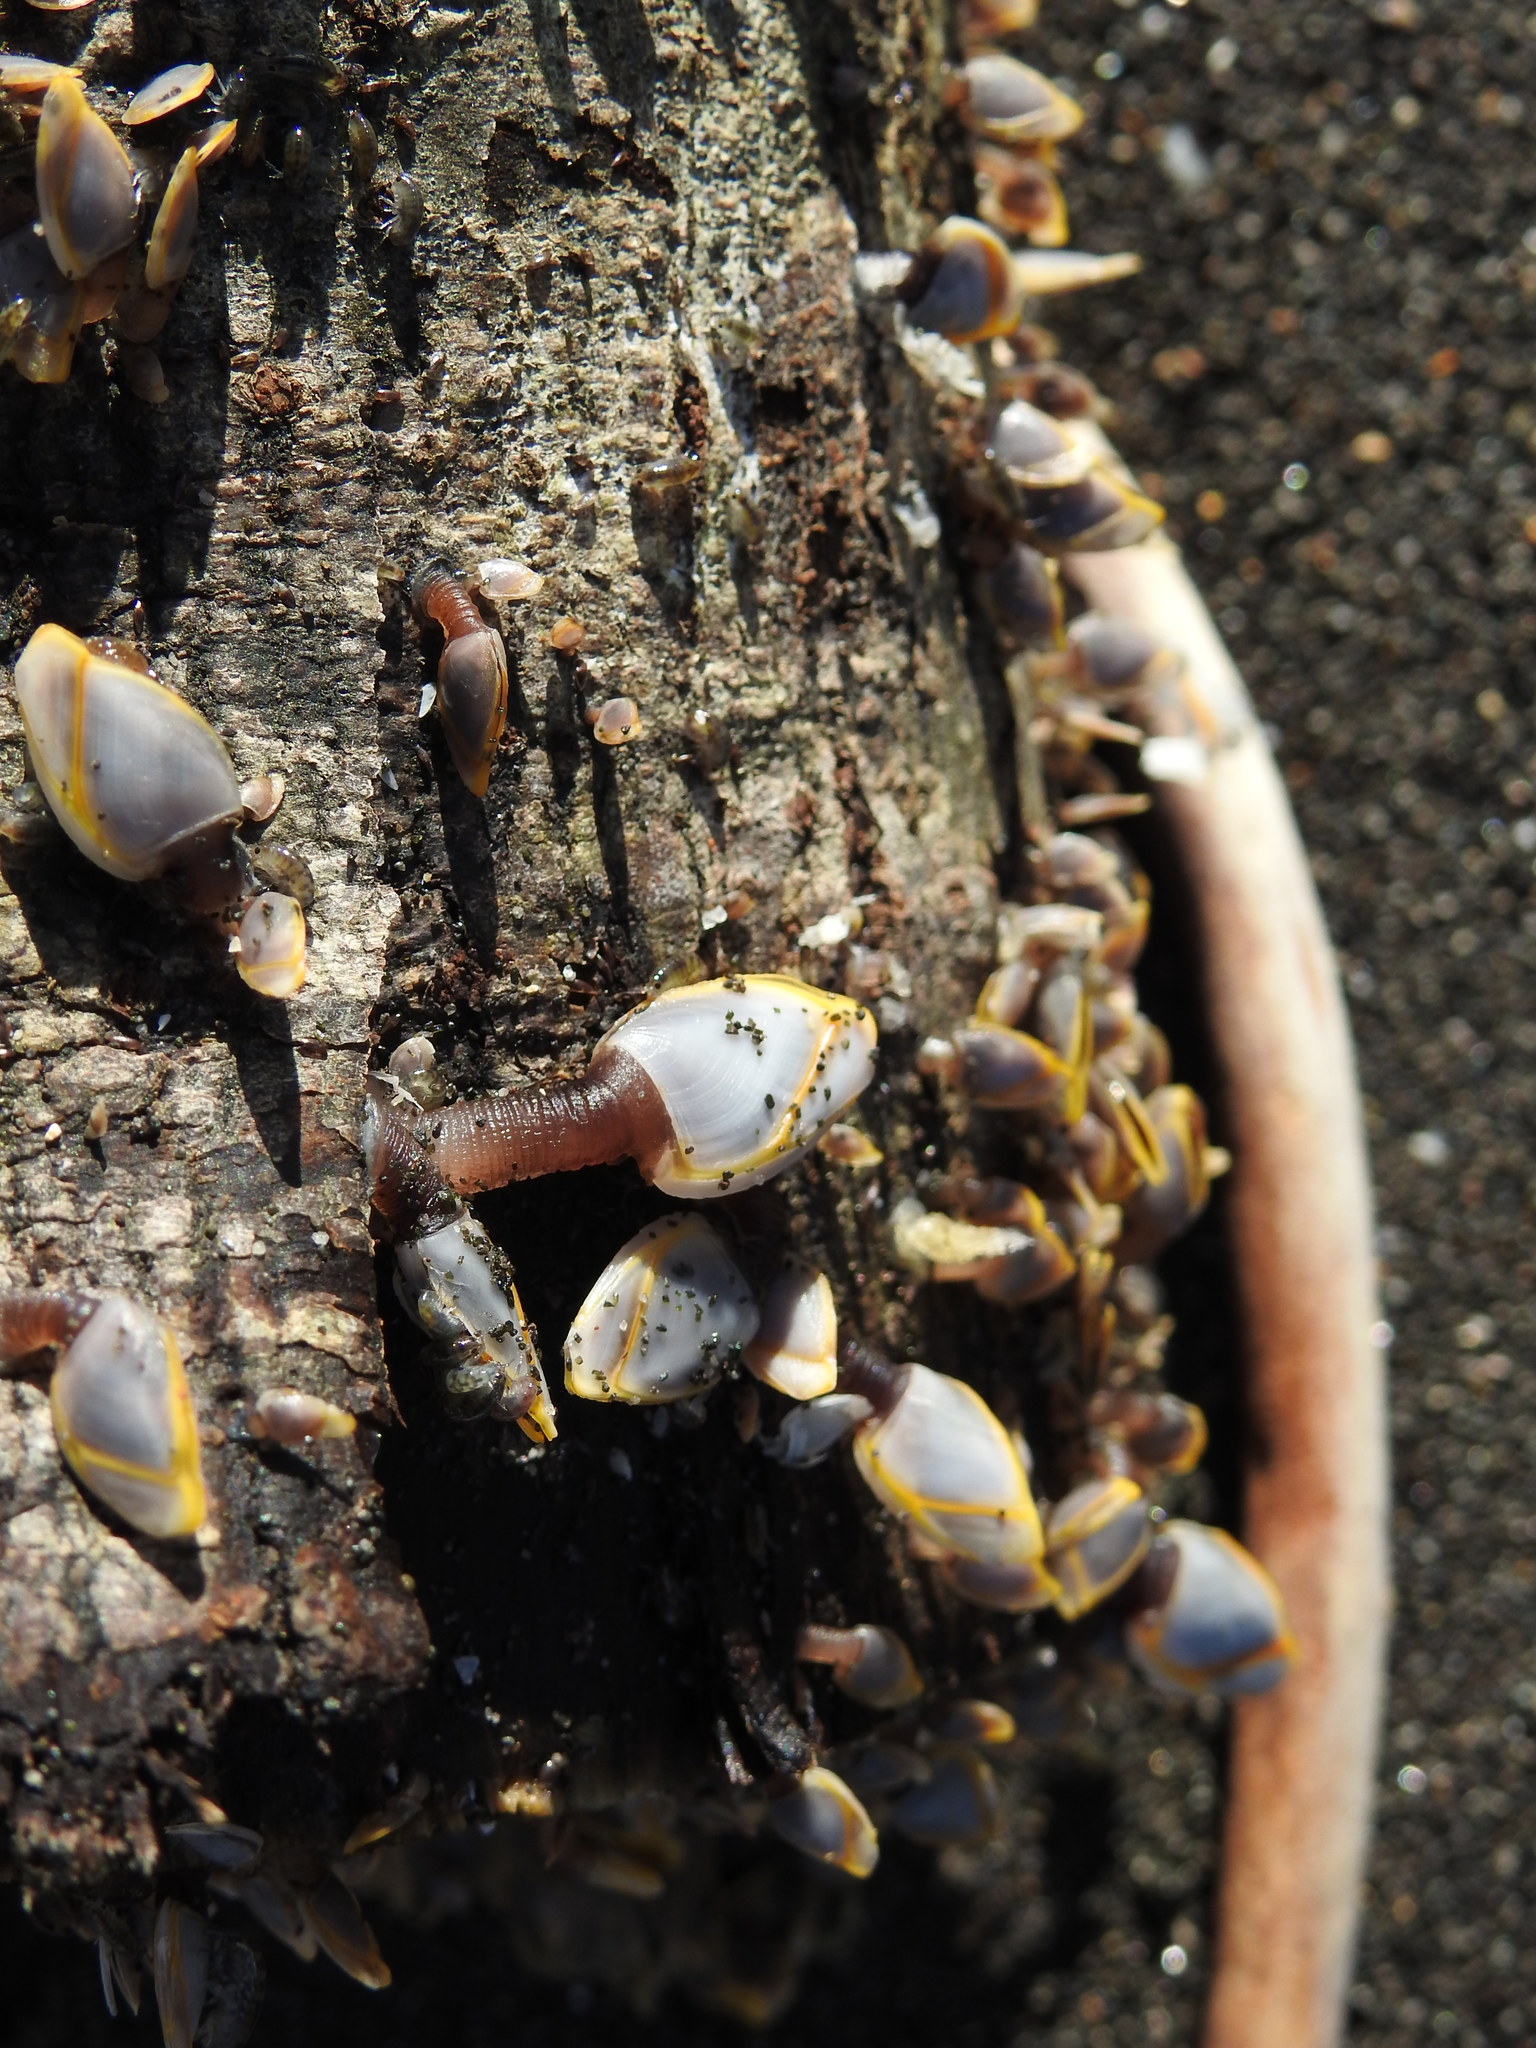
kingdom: Animalia
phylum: Arthropoda
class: Maxillopoda
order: Pedunculata
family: Lepadidae
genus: Lepas
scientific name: Lepas anatifera
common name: Common goose barnacle
